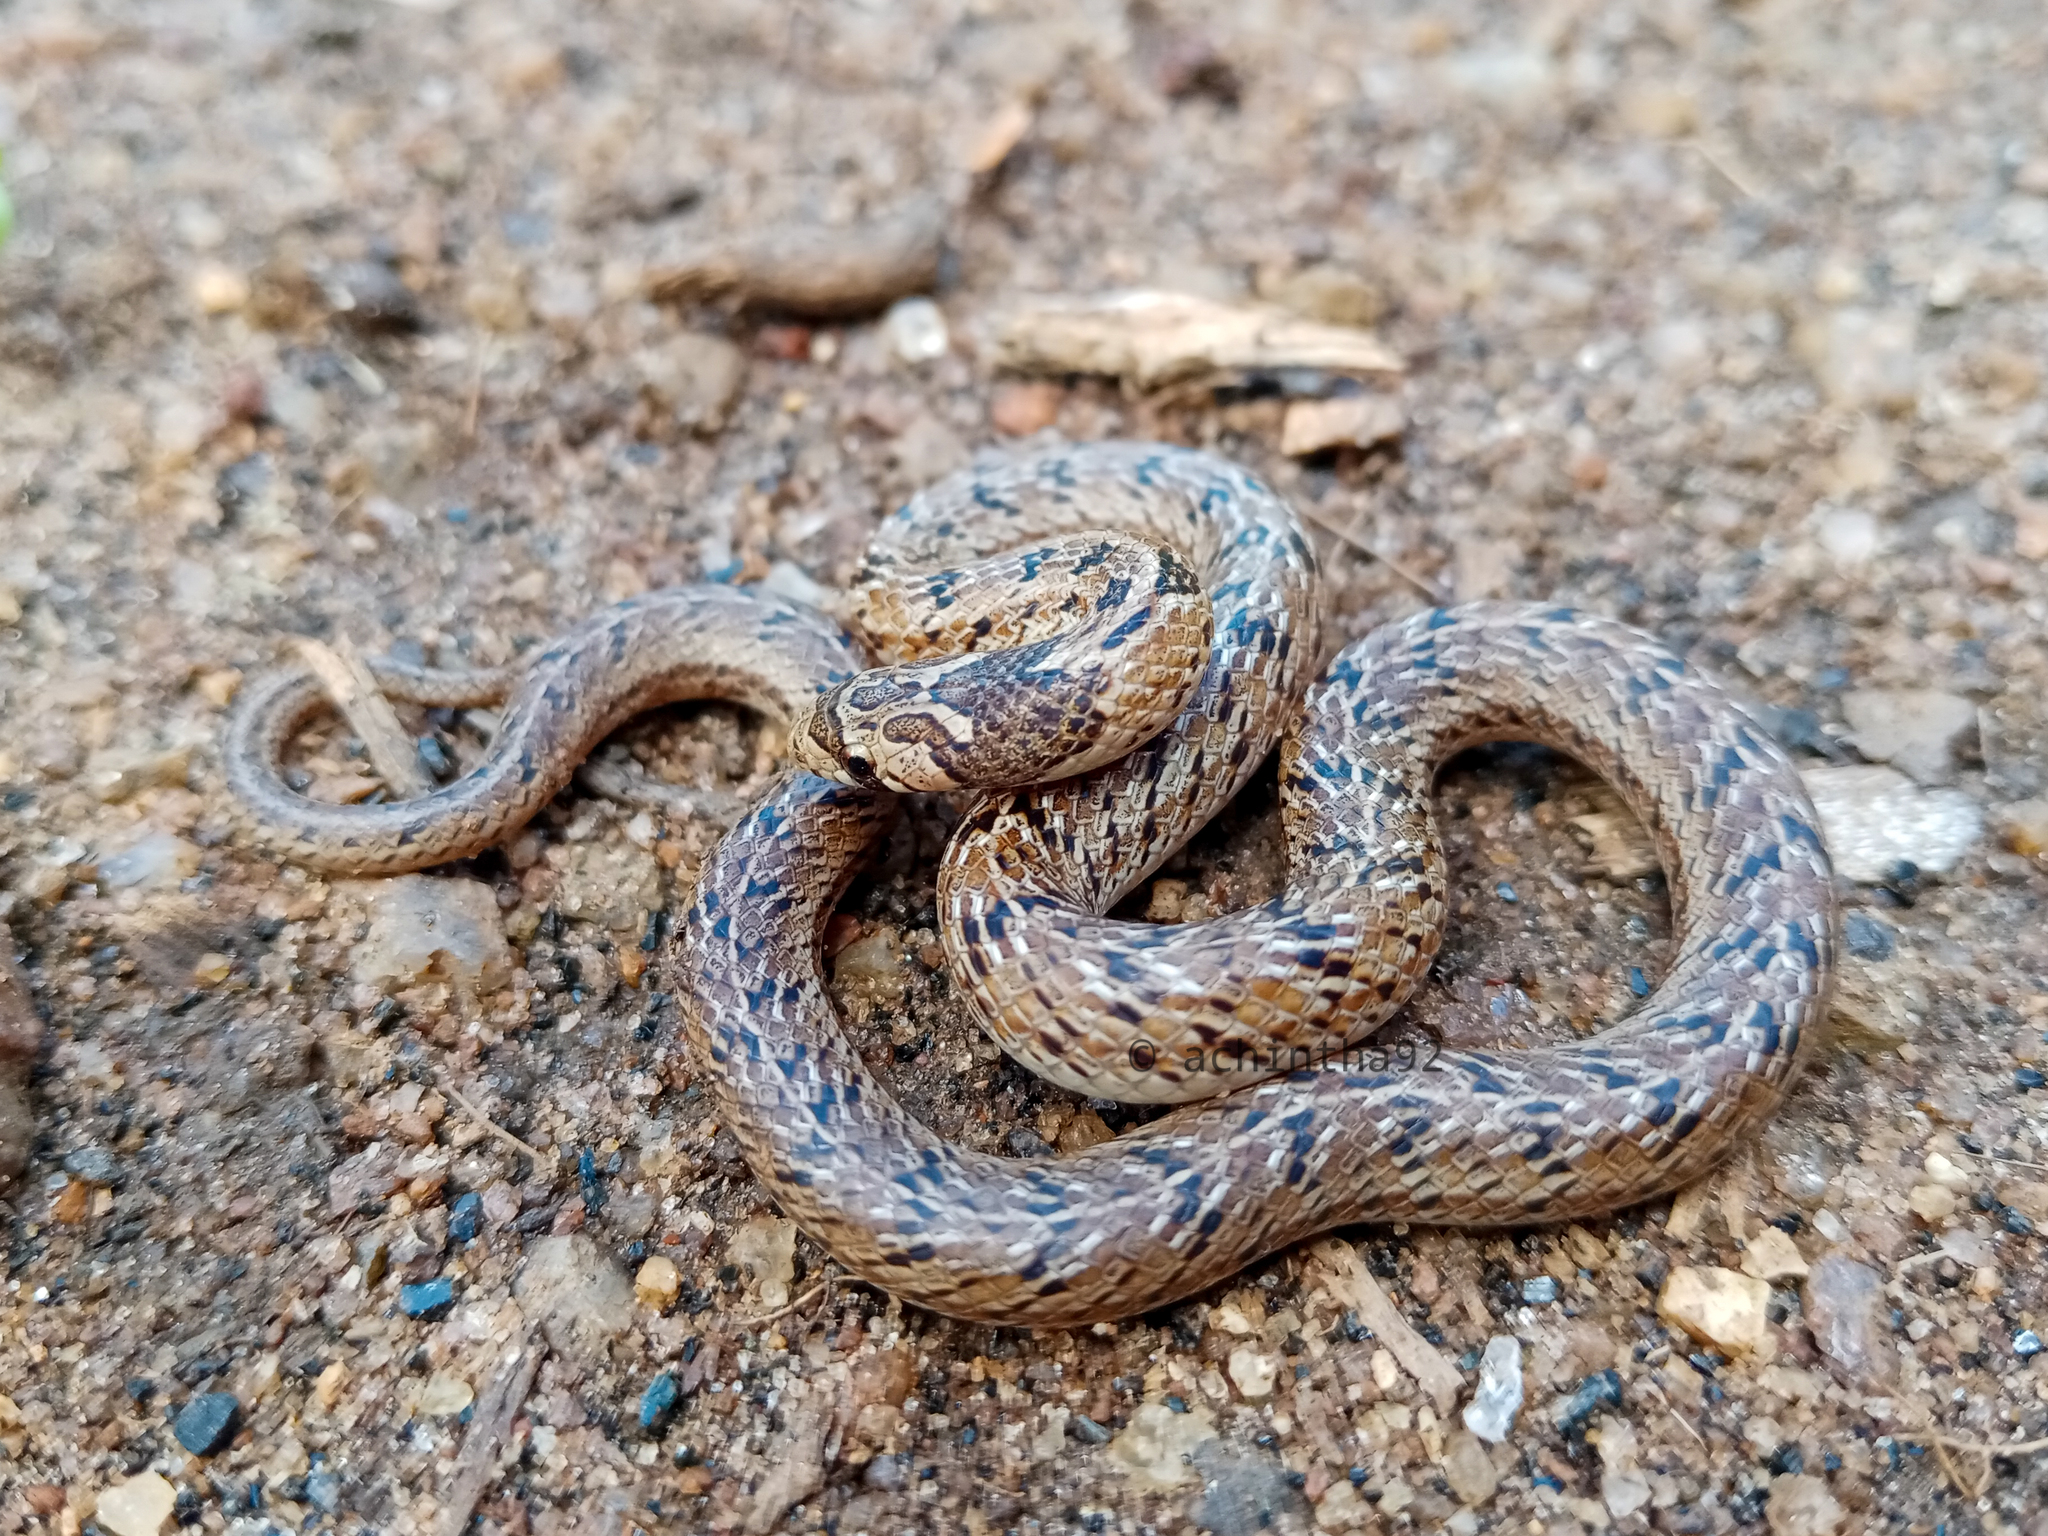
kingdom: Animalia
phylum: Chordata
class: Squamata
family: Colubridae
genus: Oligodon
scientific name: Oligodon taeniolatus
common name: Loos snake
